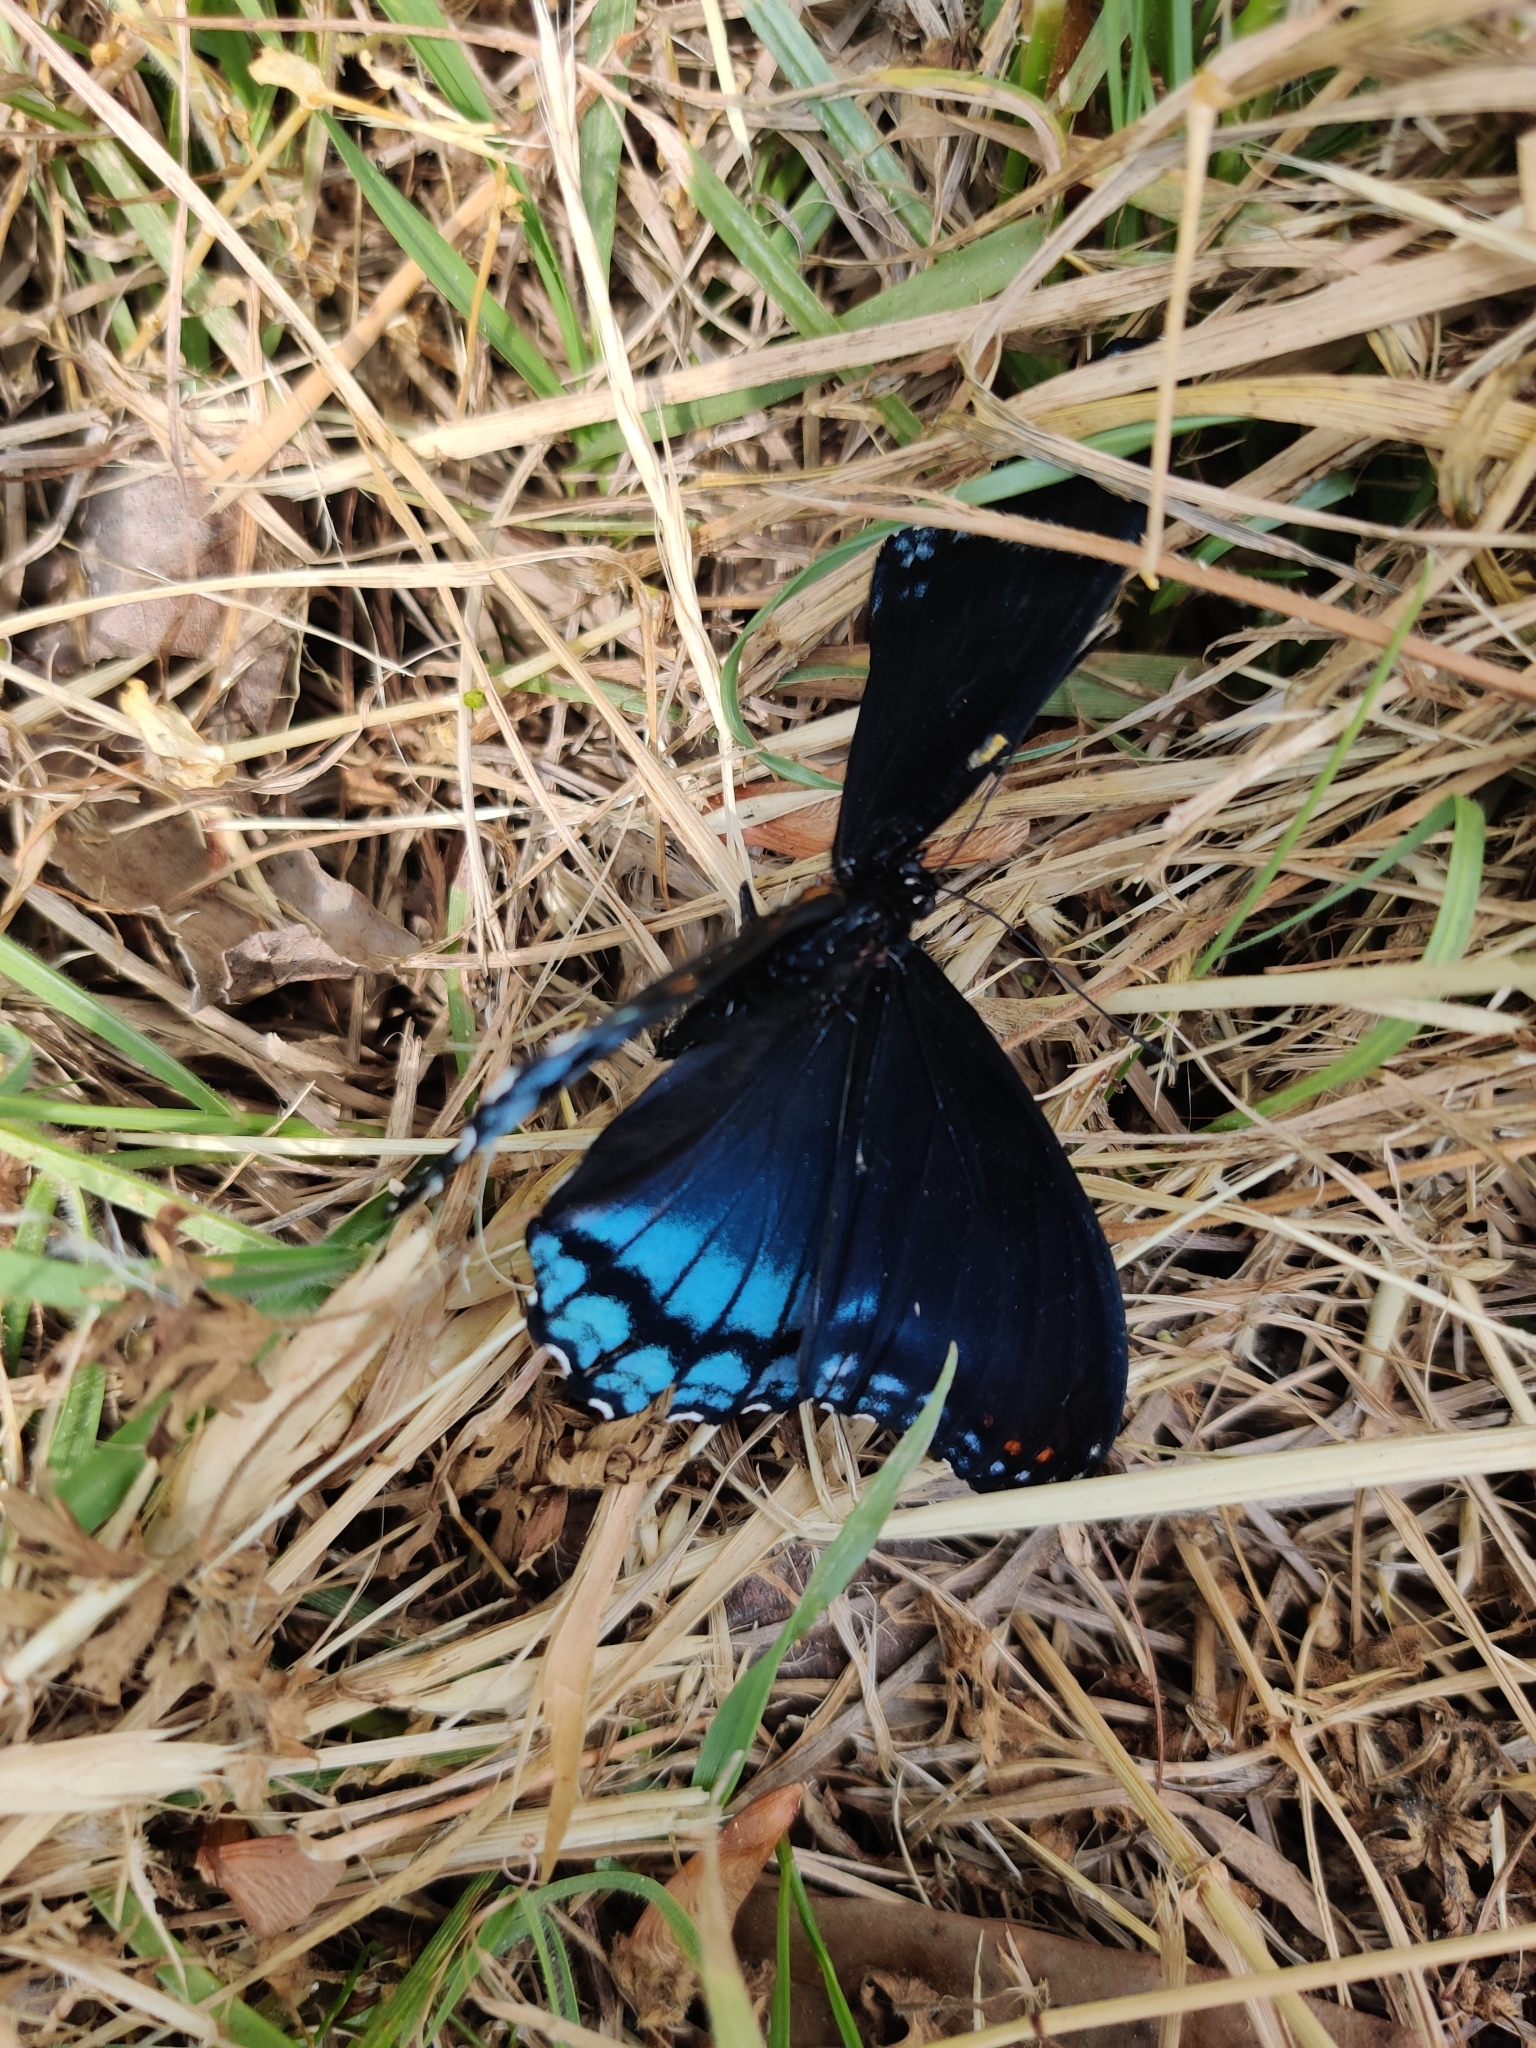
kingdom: Animalia
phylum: Arthropoda
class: Insecta
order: Lepidoptera
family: Nymphalidae
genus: Limenitis
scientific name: Limenitis astyanax
